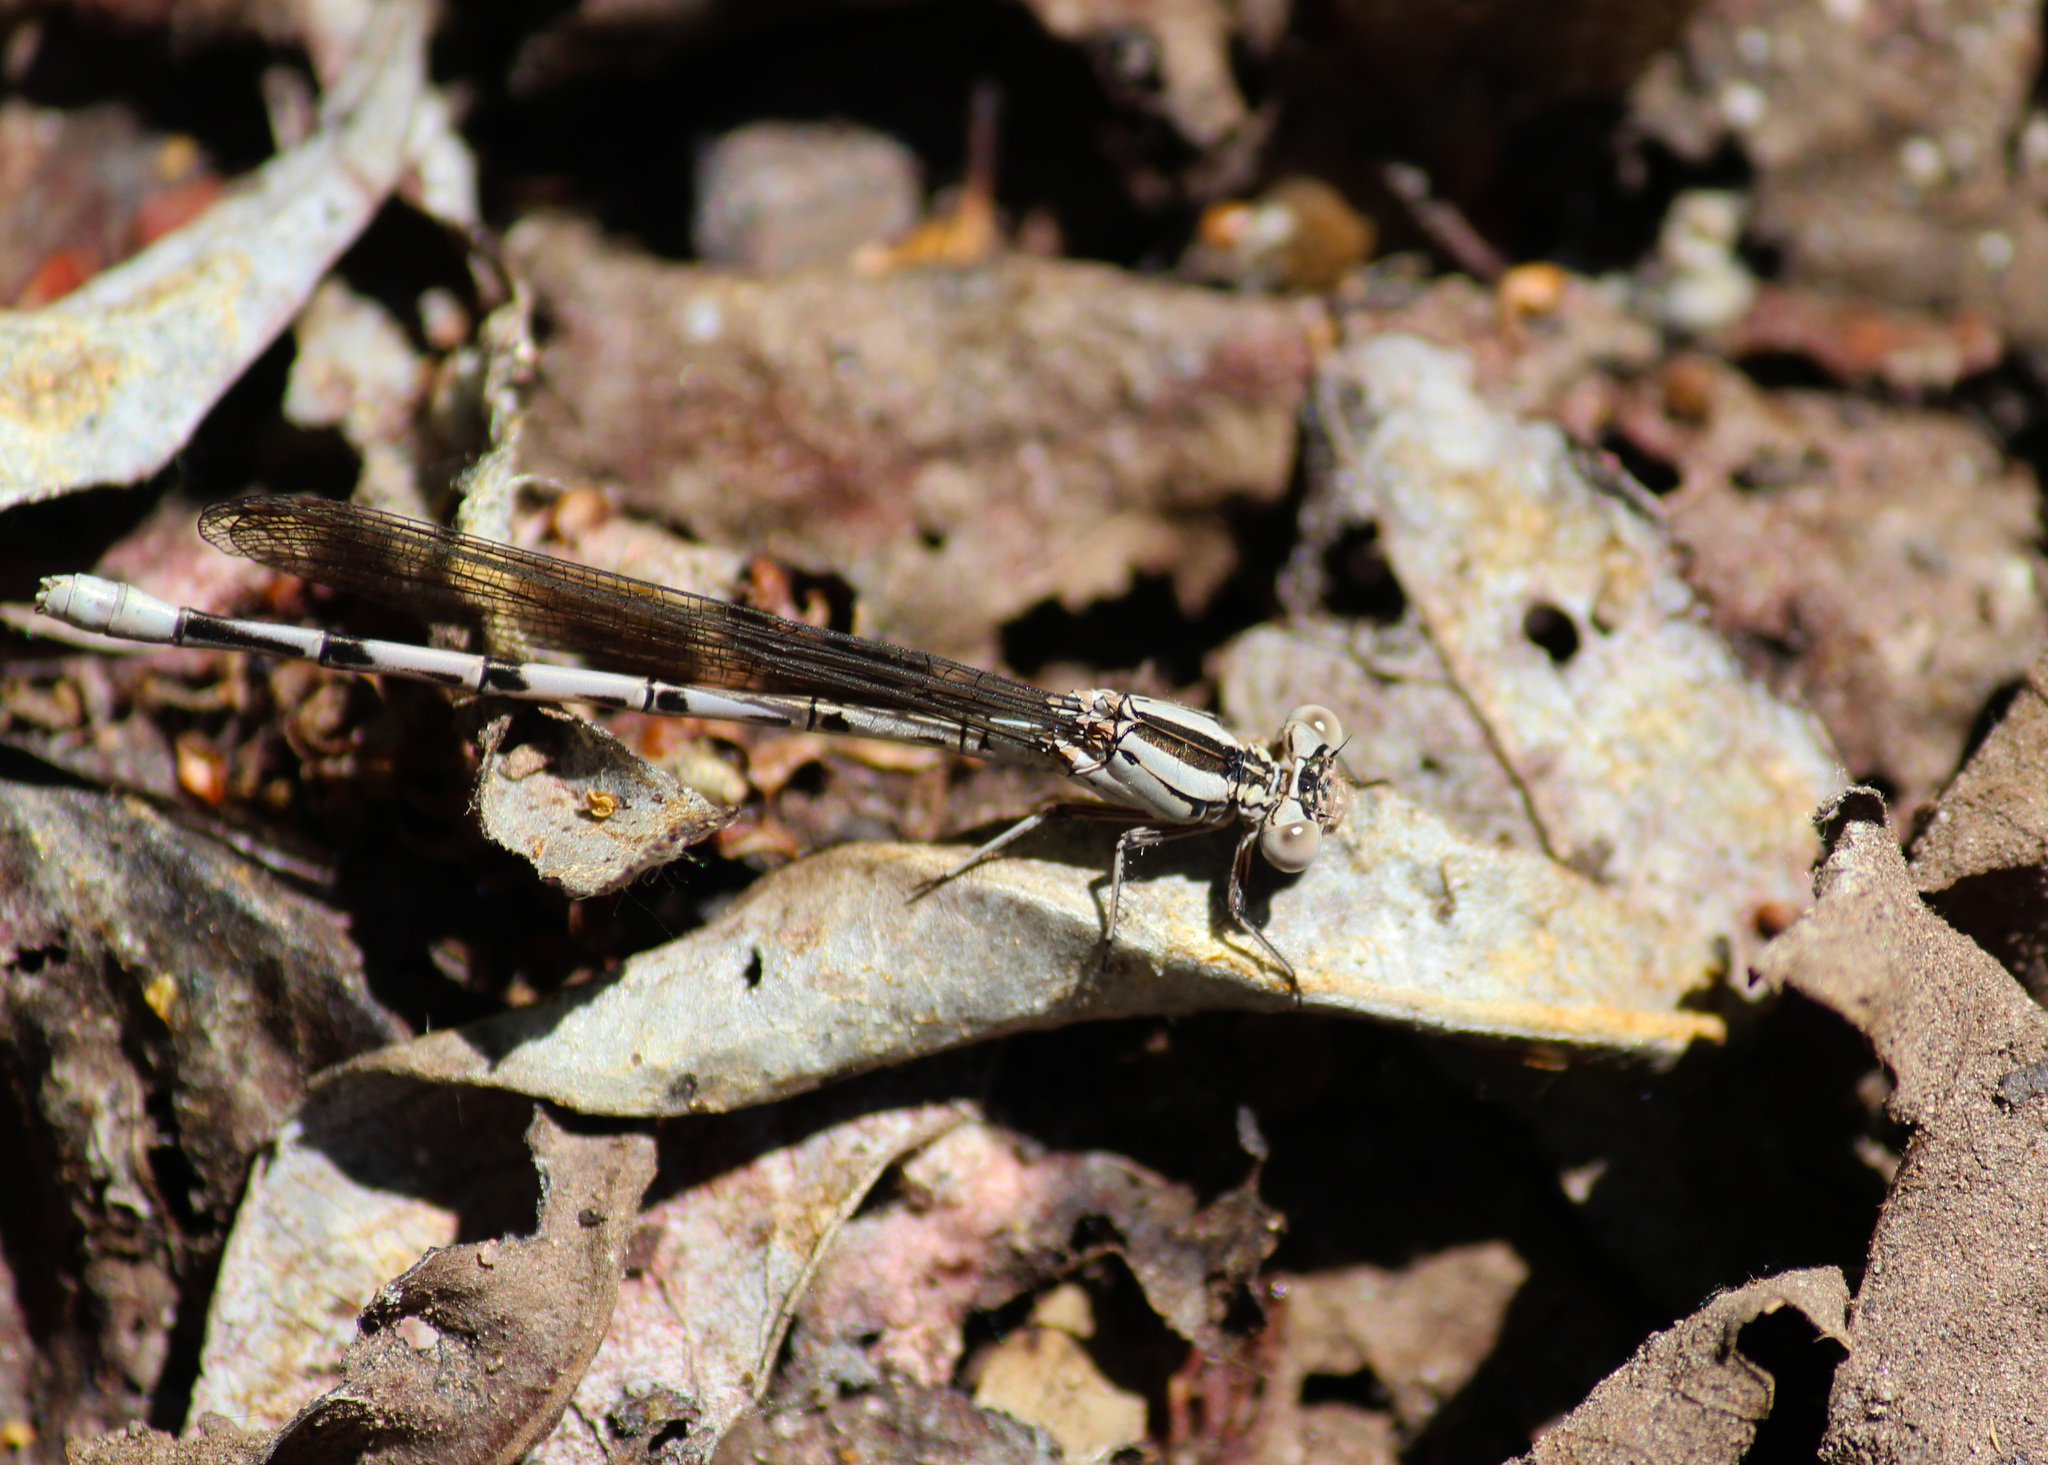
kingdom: Animalia
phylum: Arthropoda
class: Insecta
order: Odonata
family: Coenagrionidae
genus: Argia
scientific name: Argia vivida
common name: Vivid dancer
